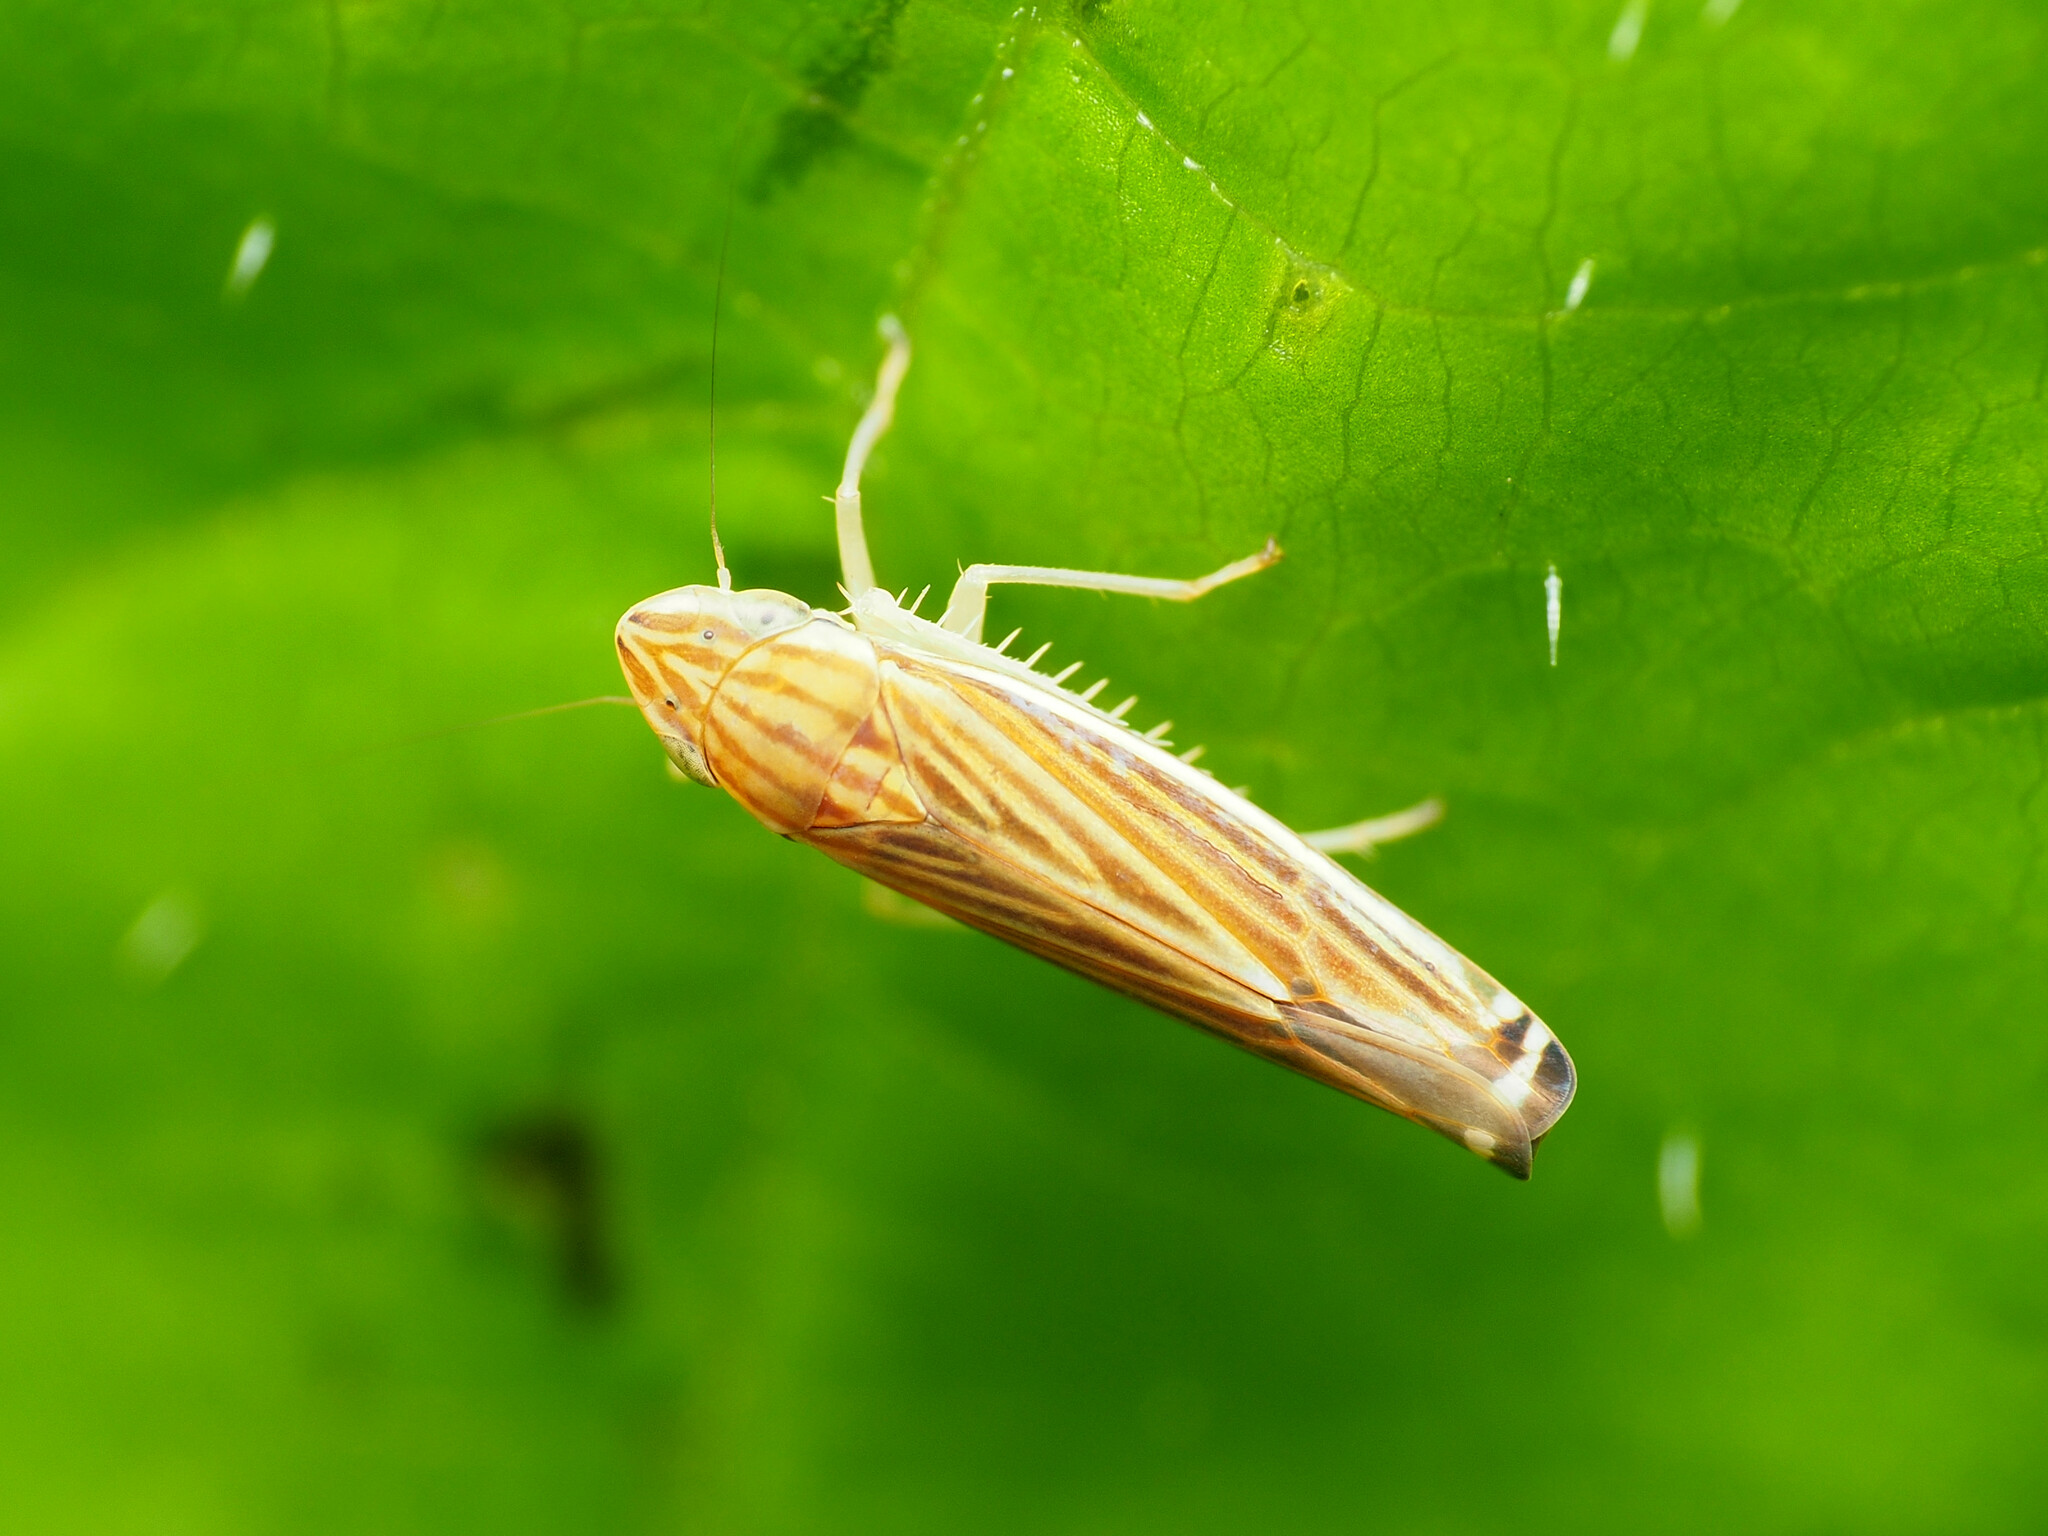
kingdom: Animalia
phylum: Arthropoda
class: Insecta
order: Hemiptera
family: Cicadellidae
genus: Sibovia
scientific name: Sibovia occatoria
